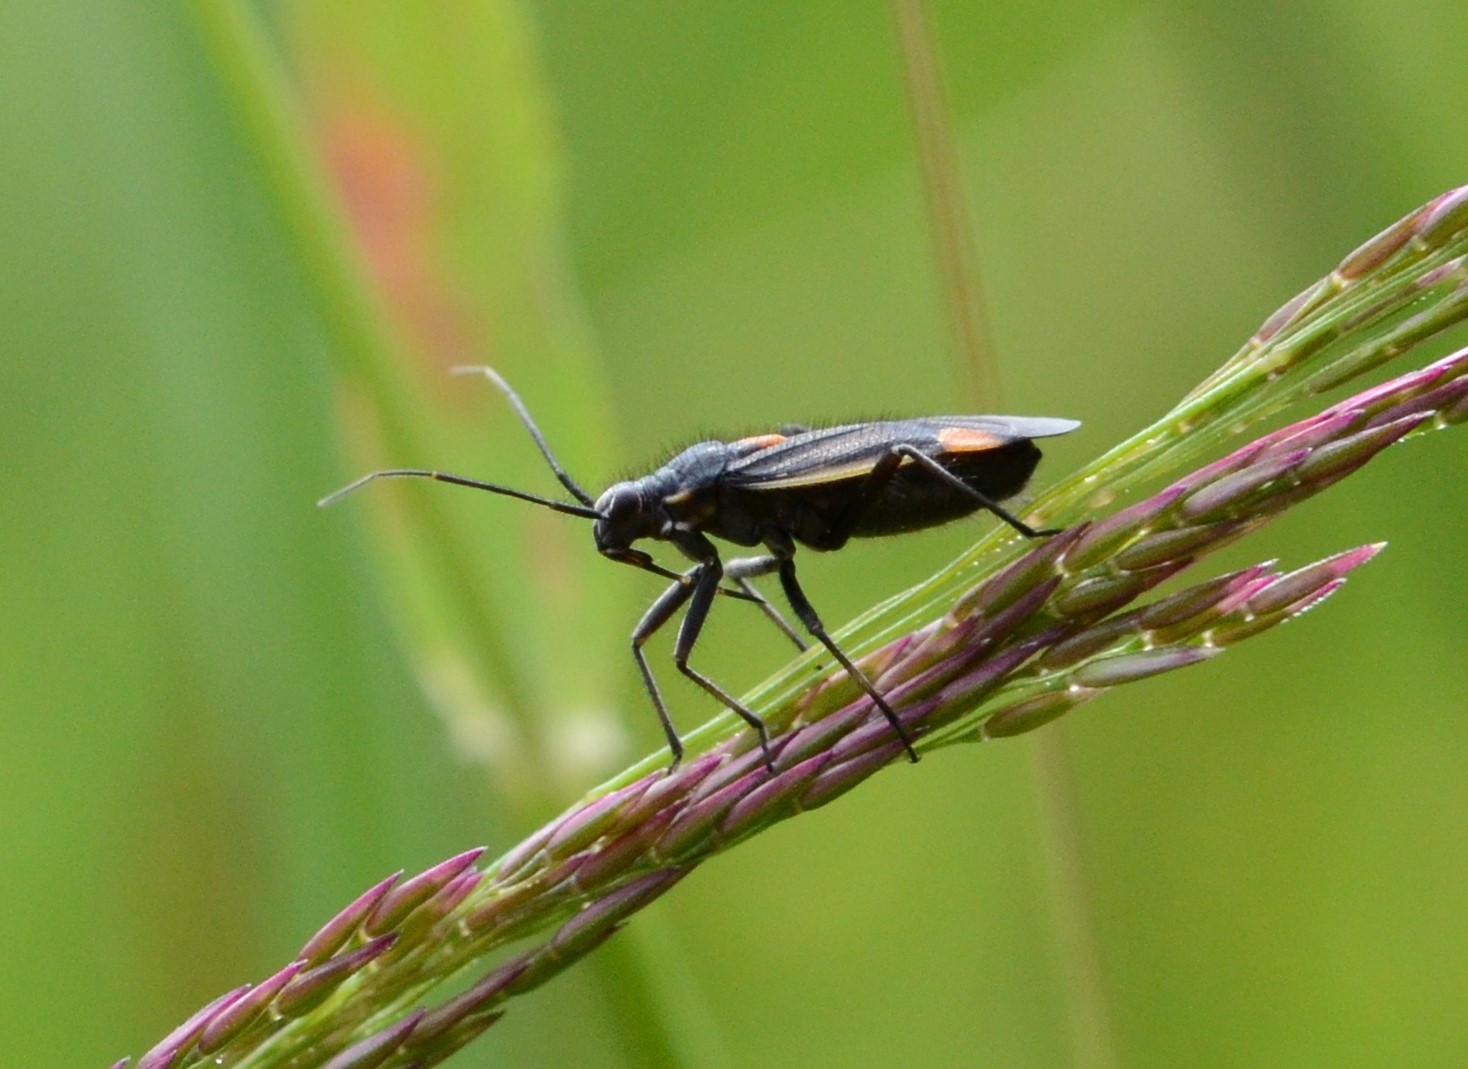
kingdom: Animalia
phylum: Arthropoda
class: Insecta
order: Hemiptera
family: Miridae
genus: Capsodes
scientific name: Capsodes gothicus
